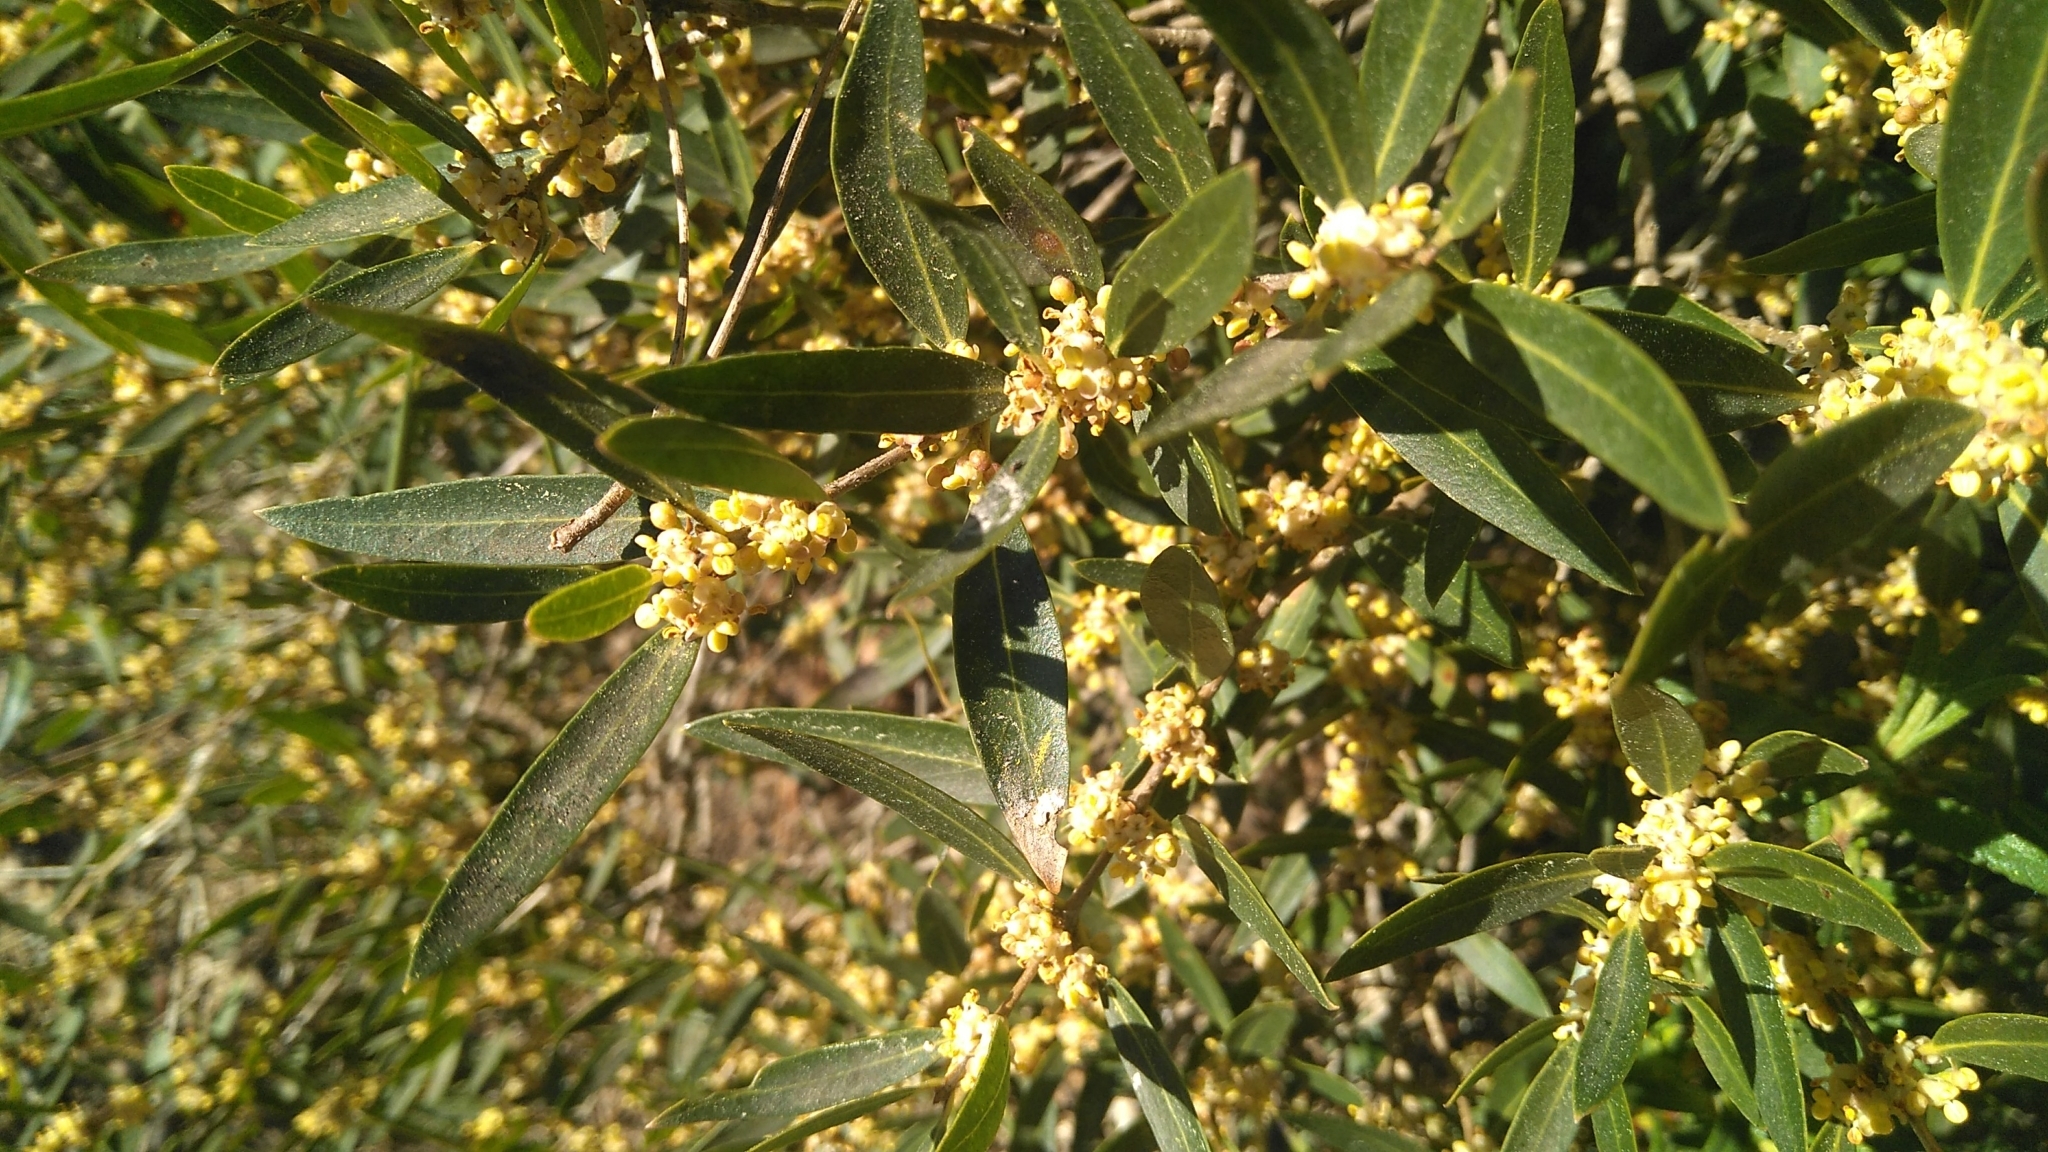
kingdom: Plantae
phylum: Tracheophyta
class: Magnoliopsida
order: Lamiales
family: Oleaceae
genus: Phillyrea
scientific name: Phillyrea angustifolia
